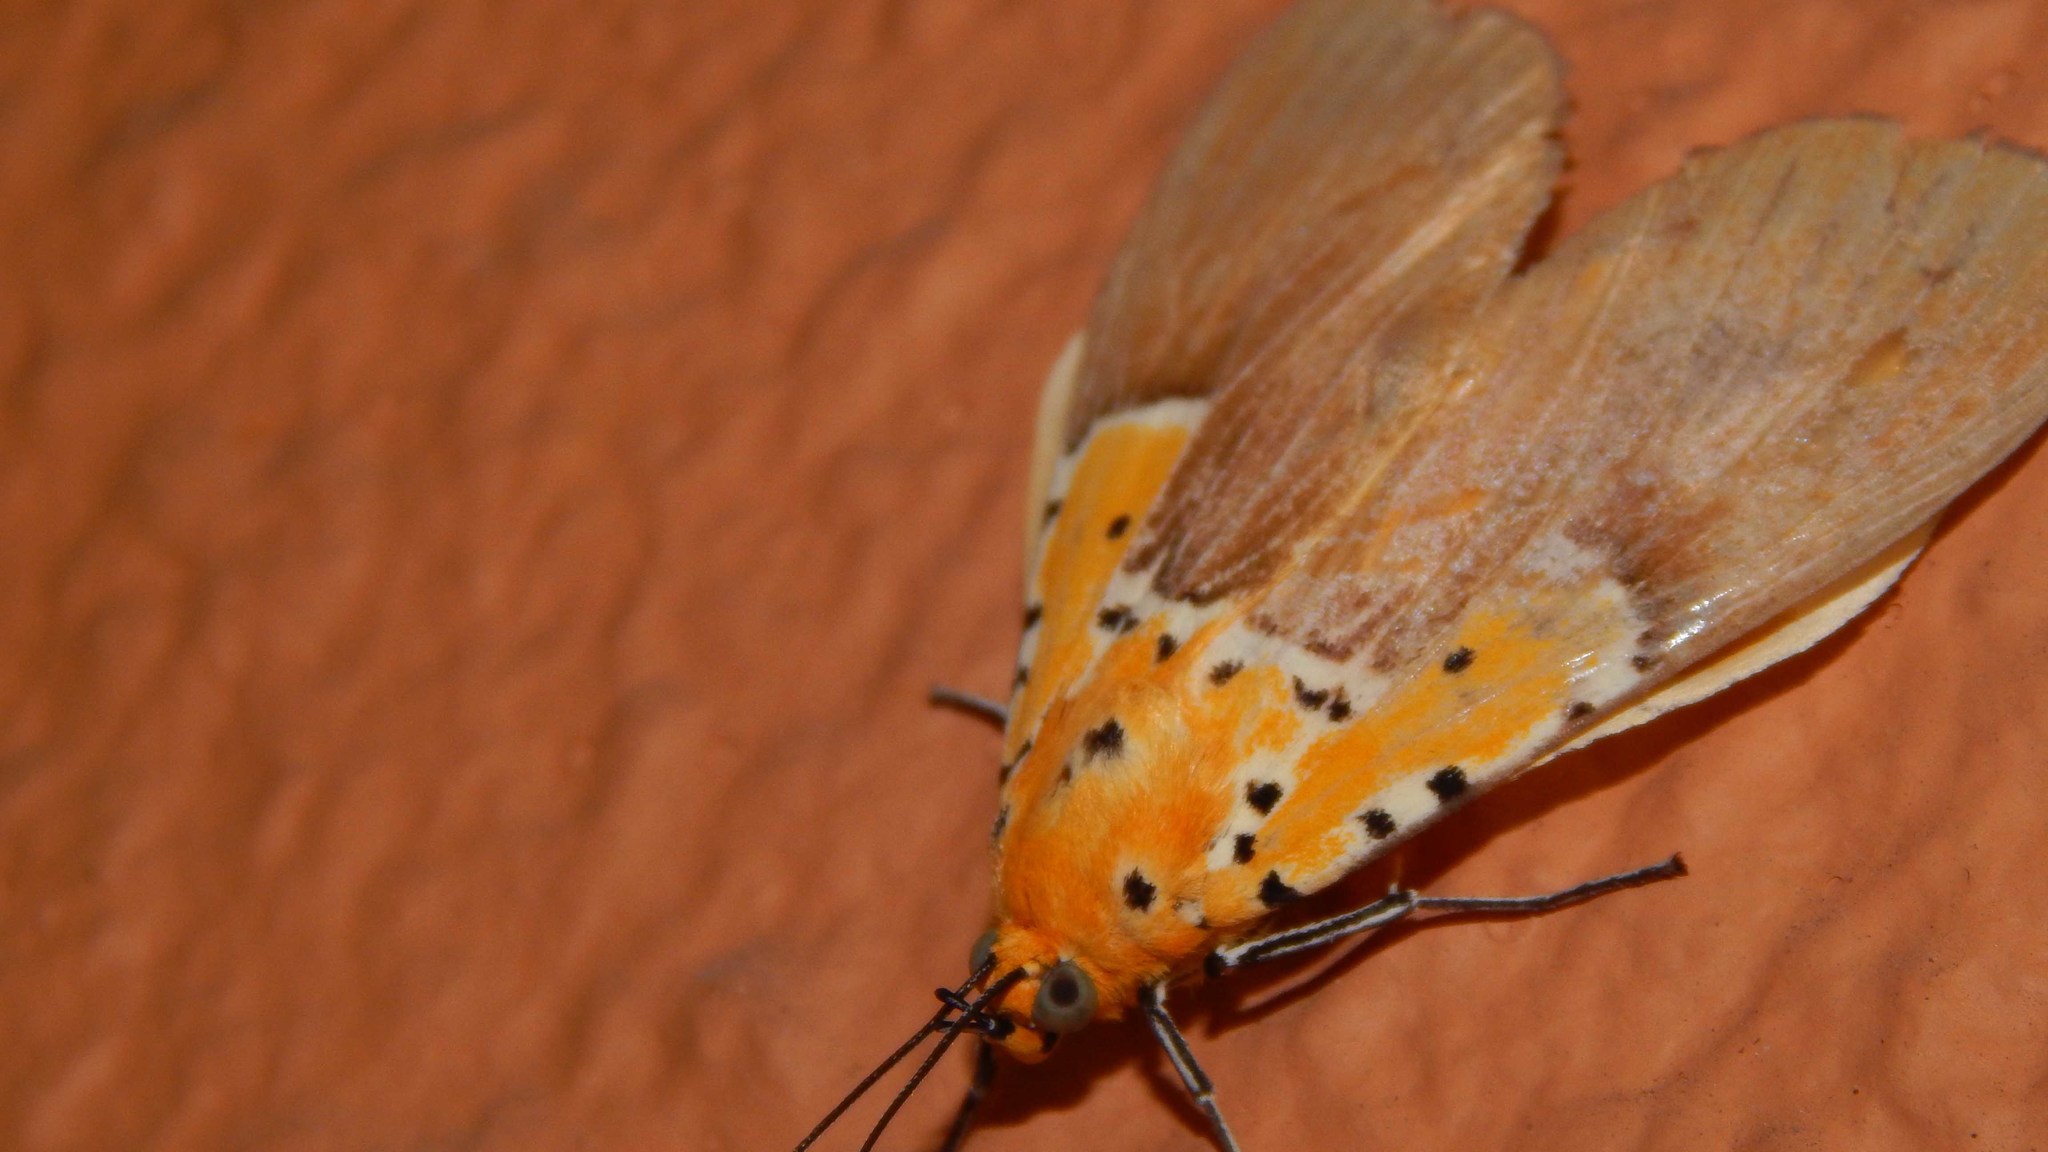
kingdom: Animalia
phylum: Arthropoda
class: Insecta
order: Lepidoptera
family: Erebidae
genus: Asota
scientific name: Asota speciosa
